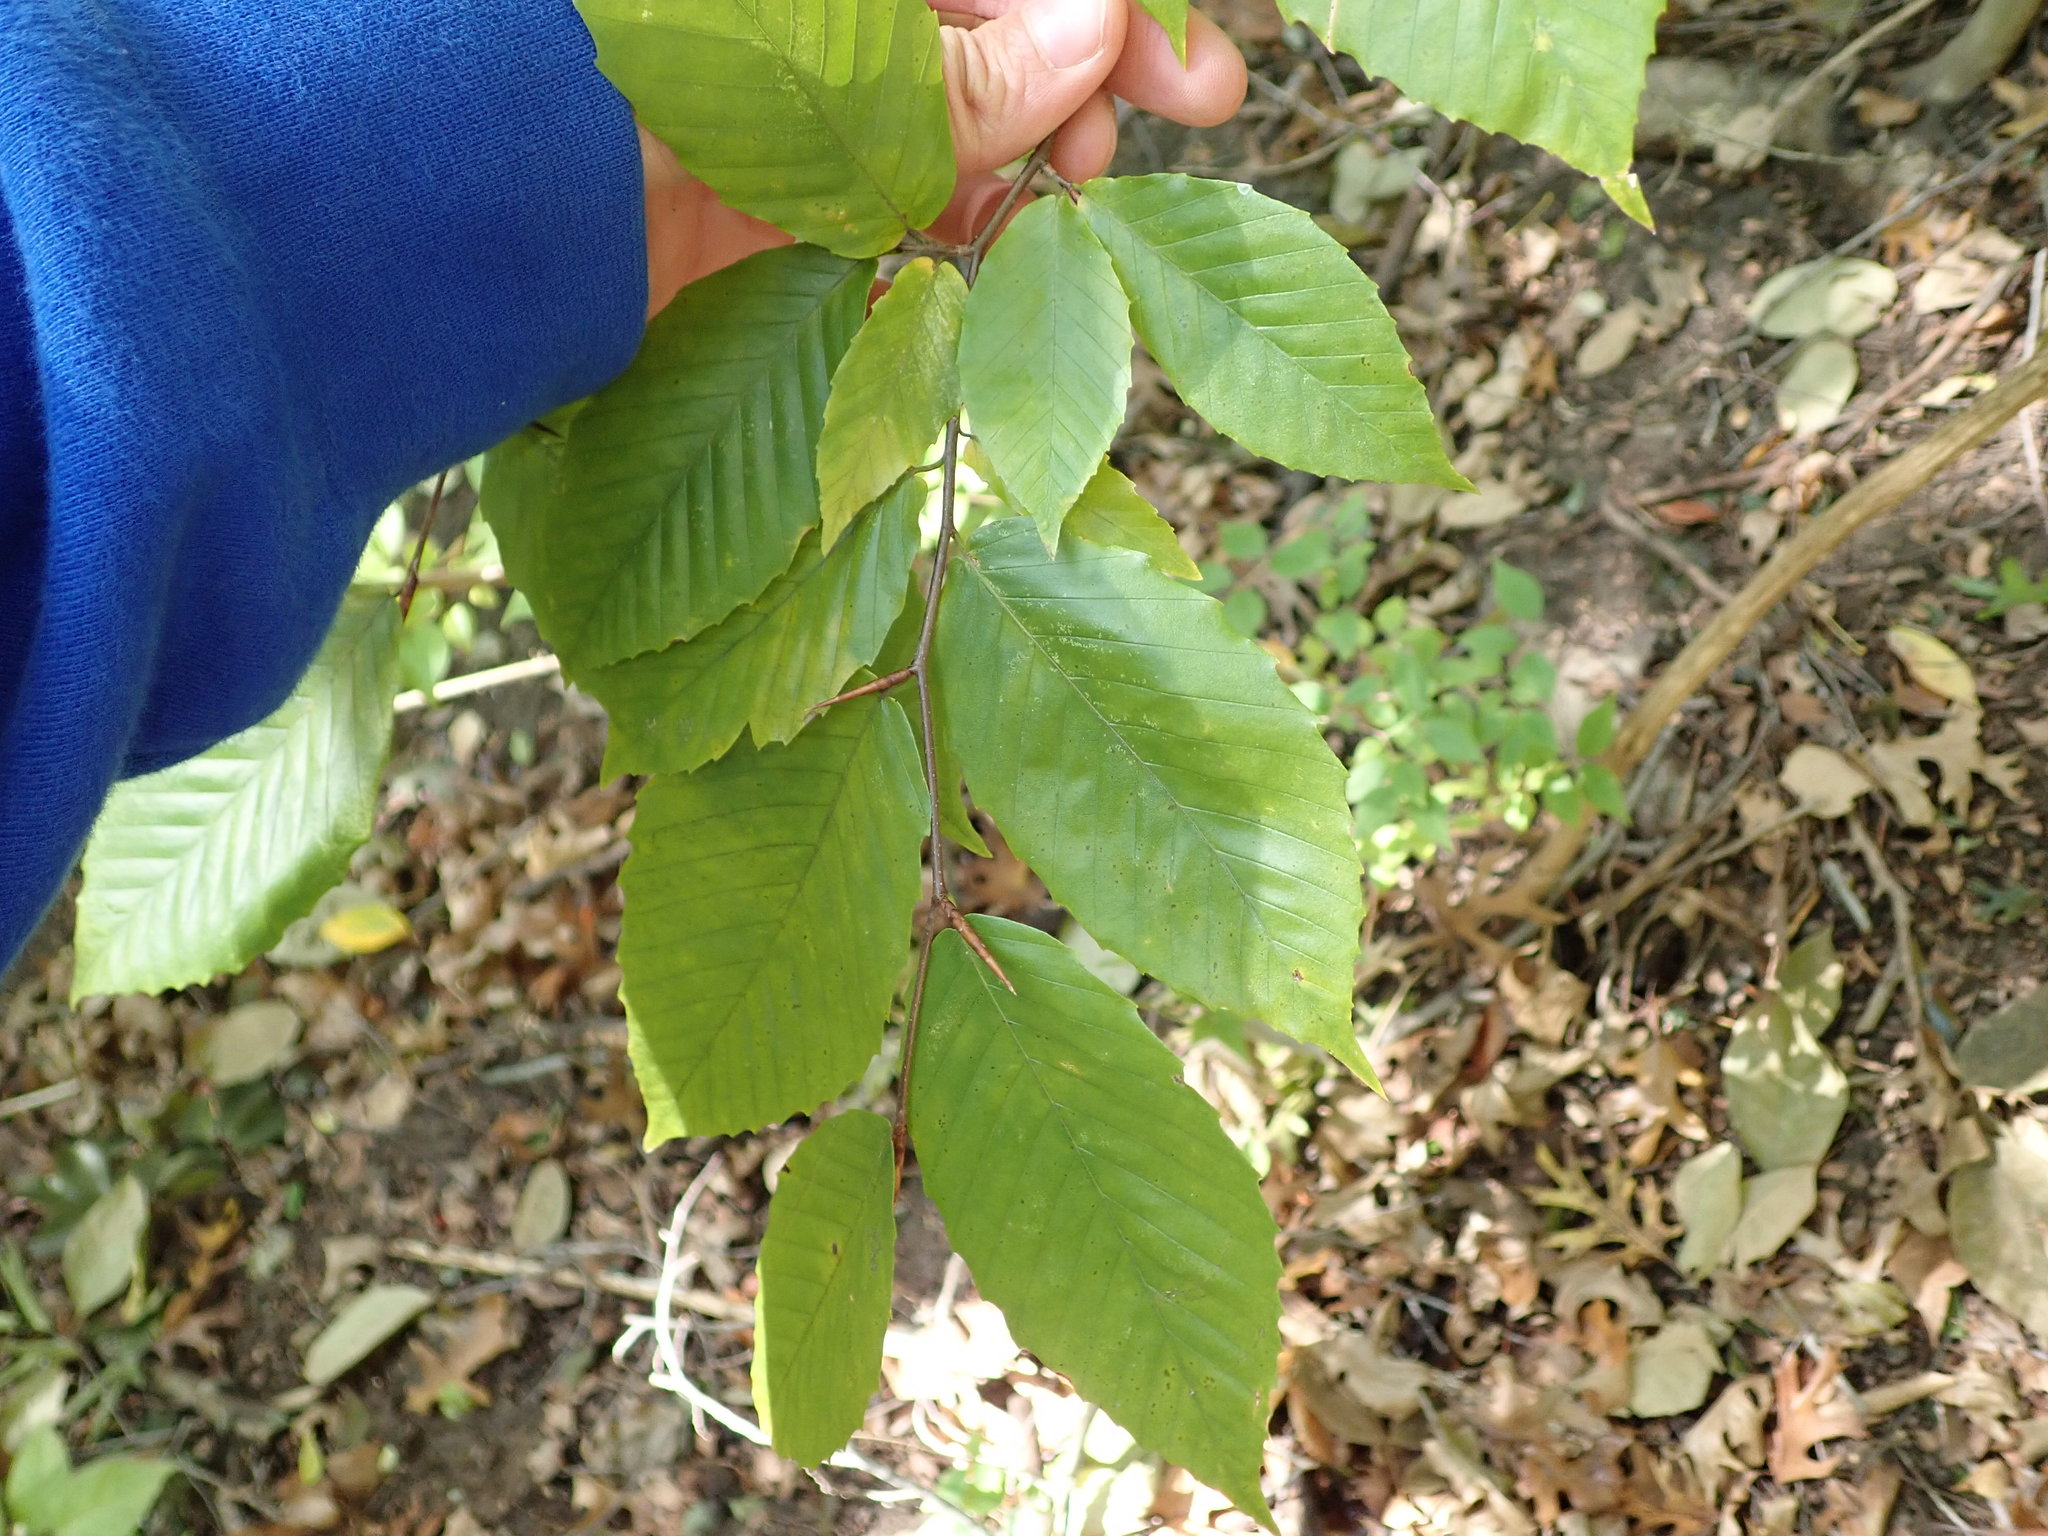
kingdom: Plantae
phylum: Tracheophyta
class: Magnoliopsida
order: Fagales
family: Fagaceae
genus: Fagus
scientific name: Fagus grandifolia
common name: American beech
